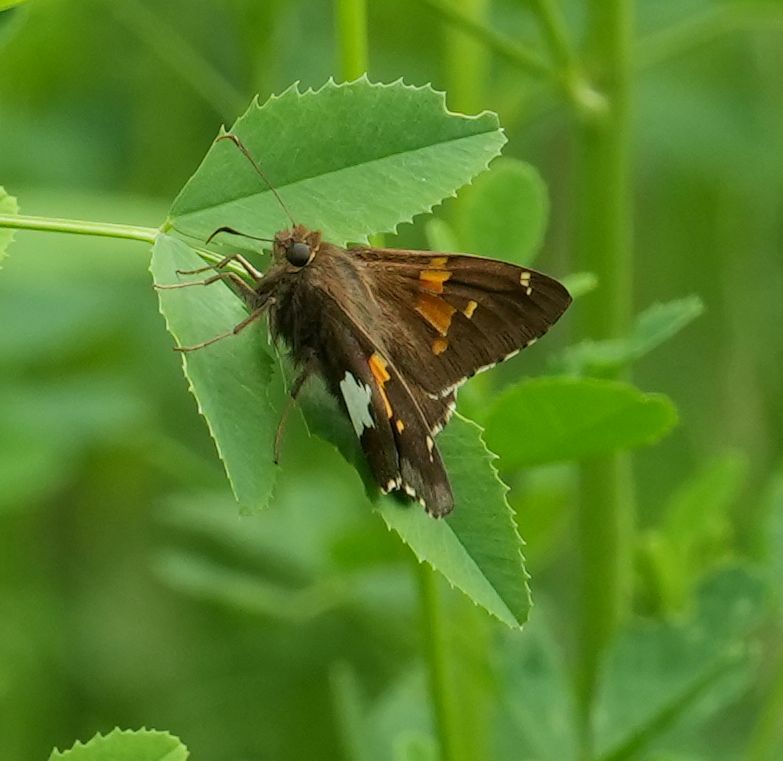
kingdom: Animalia
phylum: Arthropoda
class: Insecta
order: Lepidoptera
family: Hesperiidae
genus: Epargyreus
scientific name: Epargyreus clarus
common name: Silver-spotted skipper
